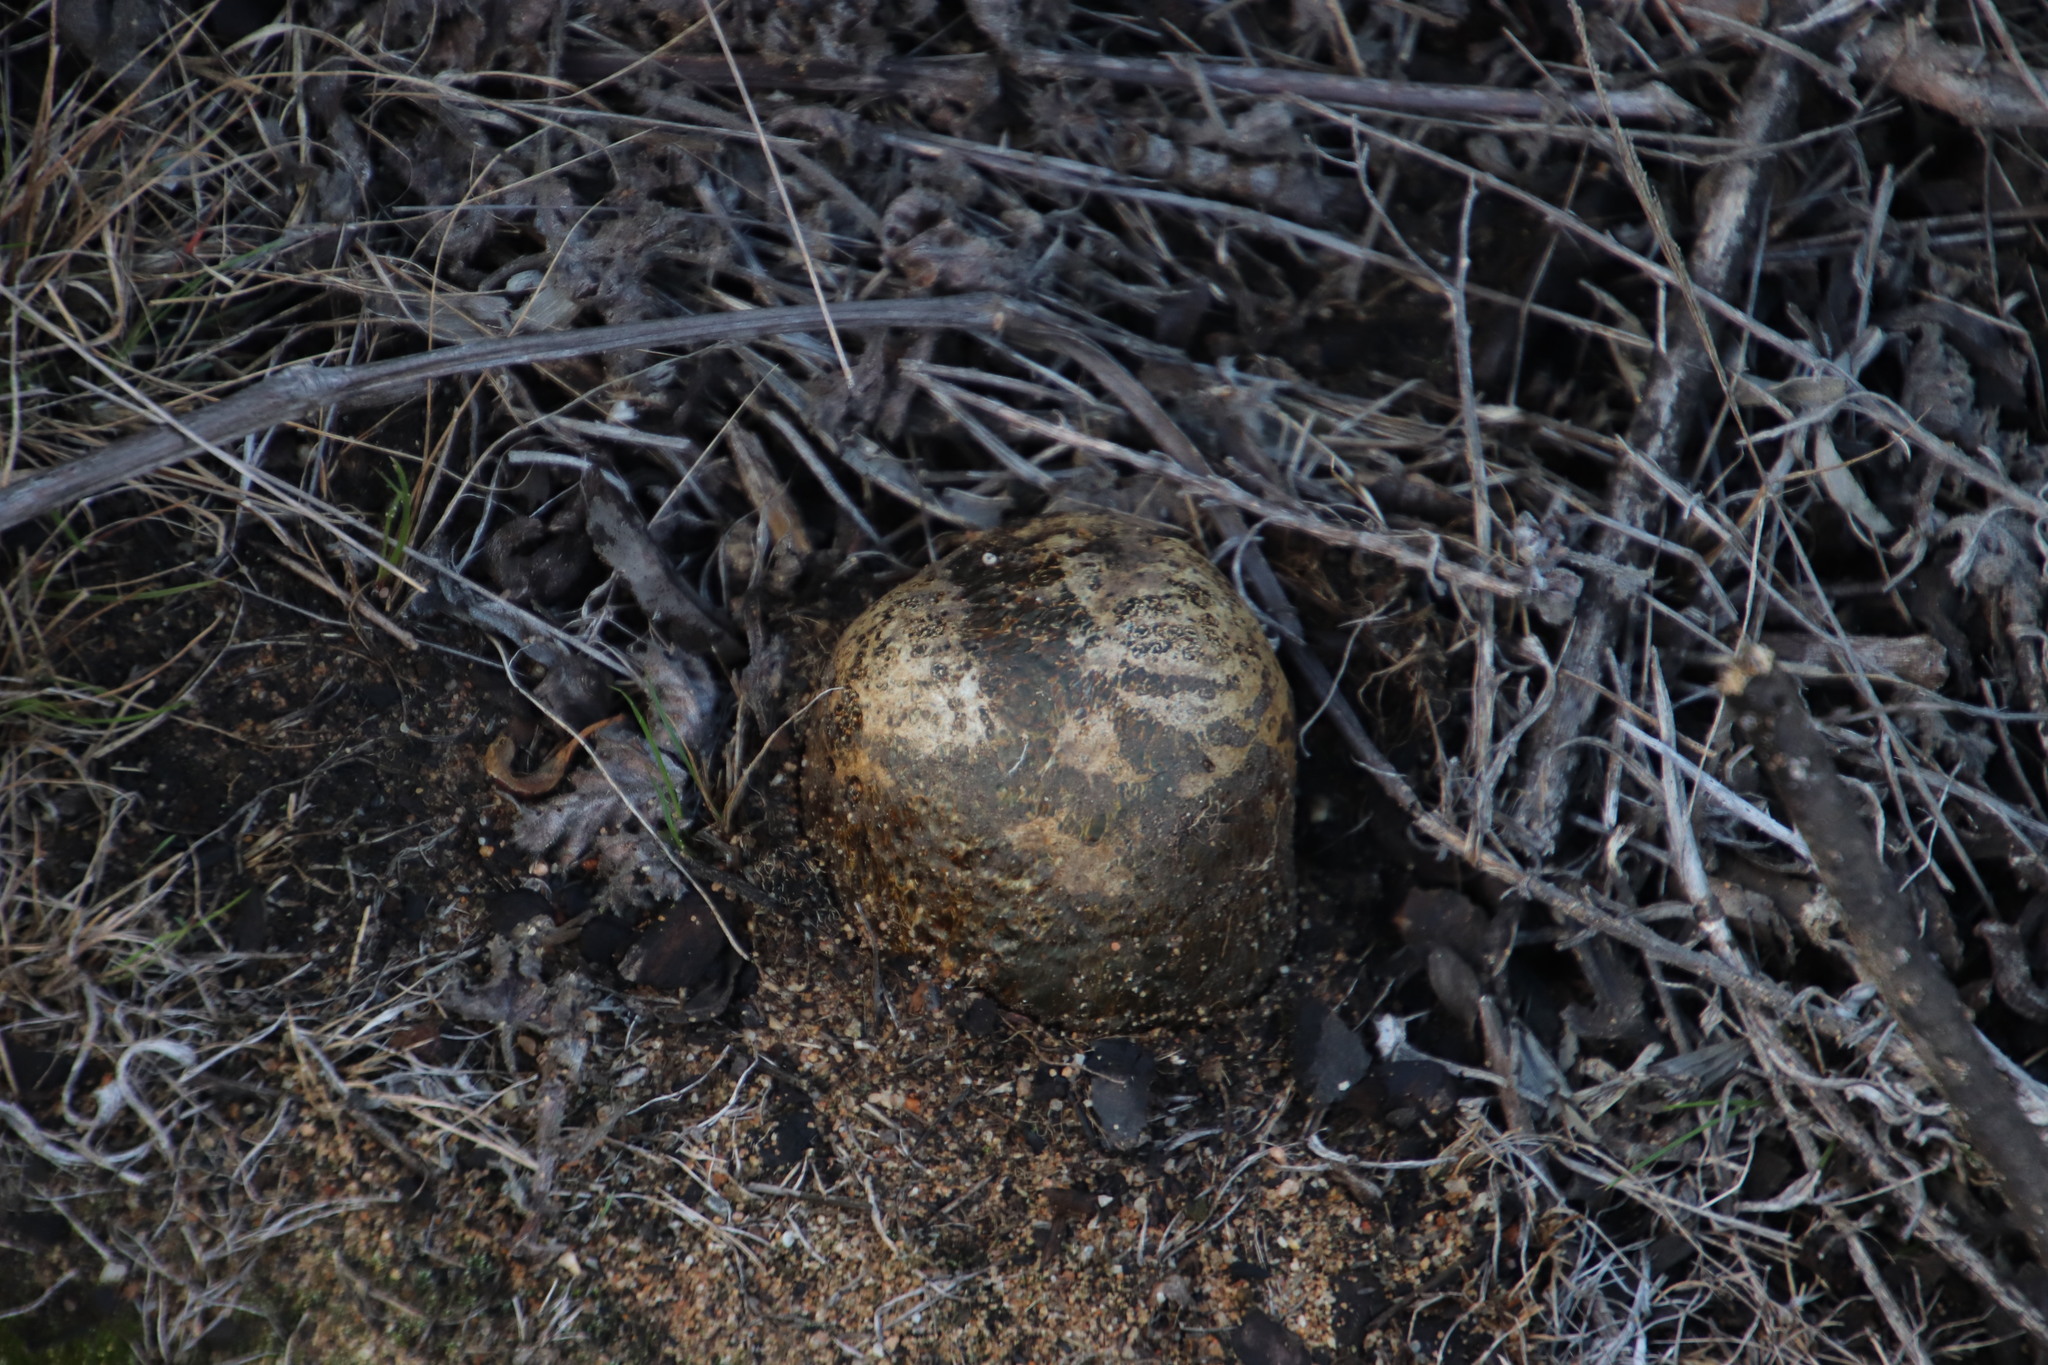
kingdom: Fungi
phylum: Basidiomycota
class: Agaricomycetes
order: Boletales
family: Sclerodermataceae
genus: Pisolithus
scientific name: Pisolithus arhizus
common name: Dyeball
